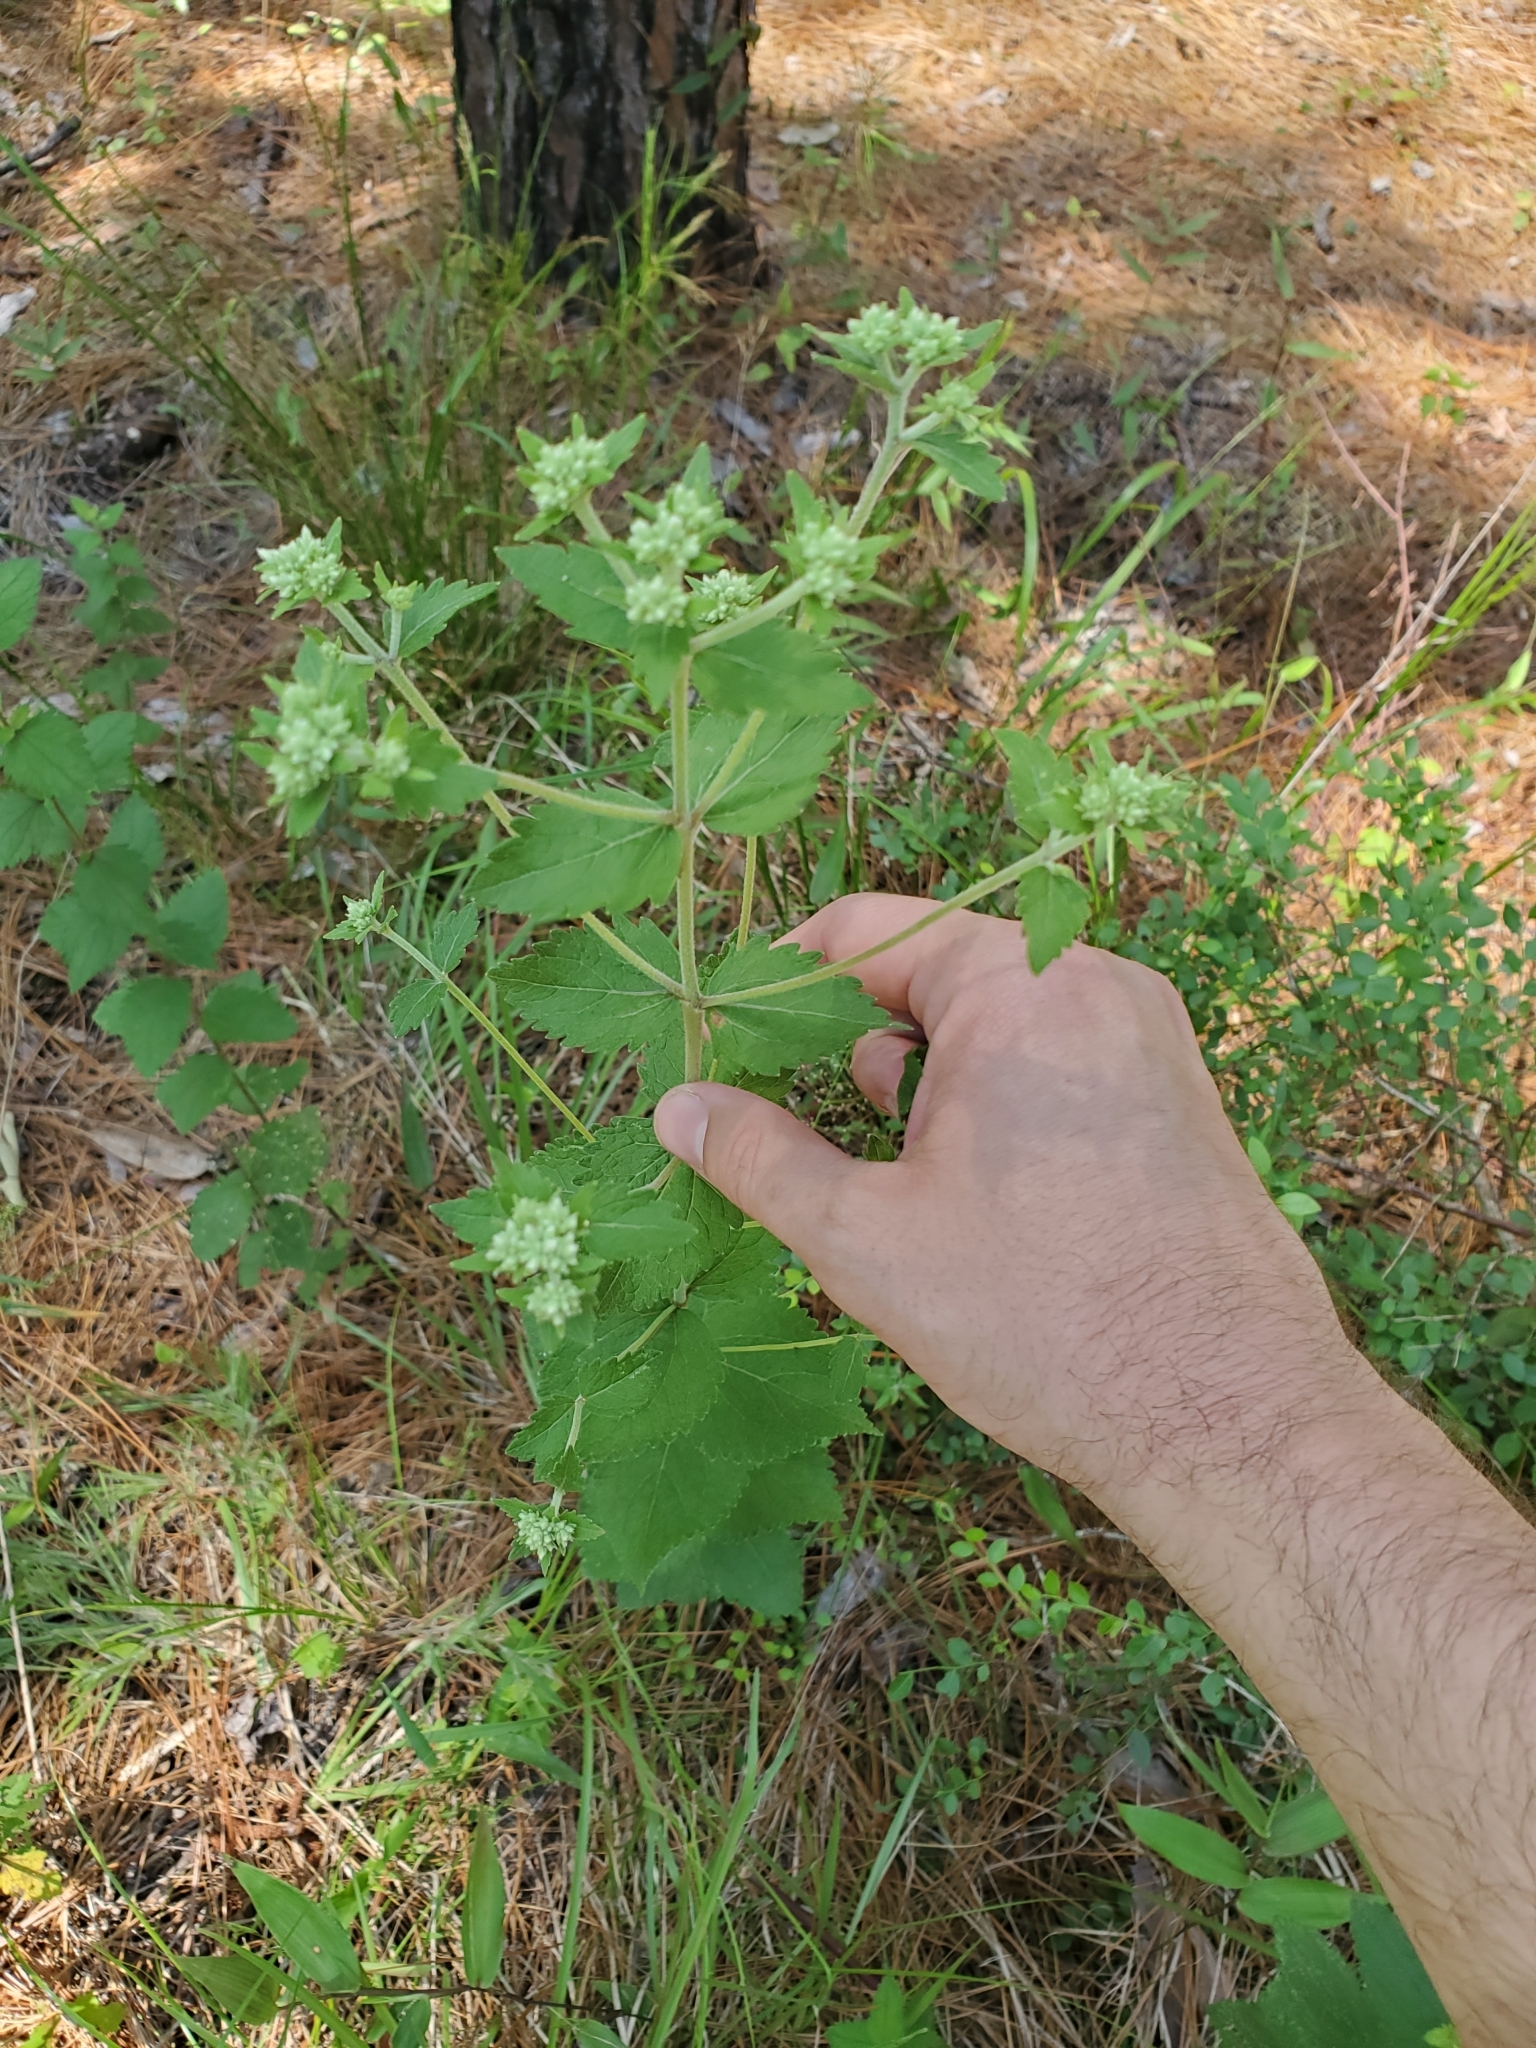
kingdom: Plantae
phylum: Tracheophyta
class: Magnoliopsida
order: Asterales
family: Asteraceae
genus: Eupatorium
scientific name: Eupatorium rotundifolium
